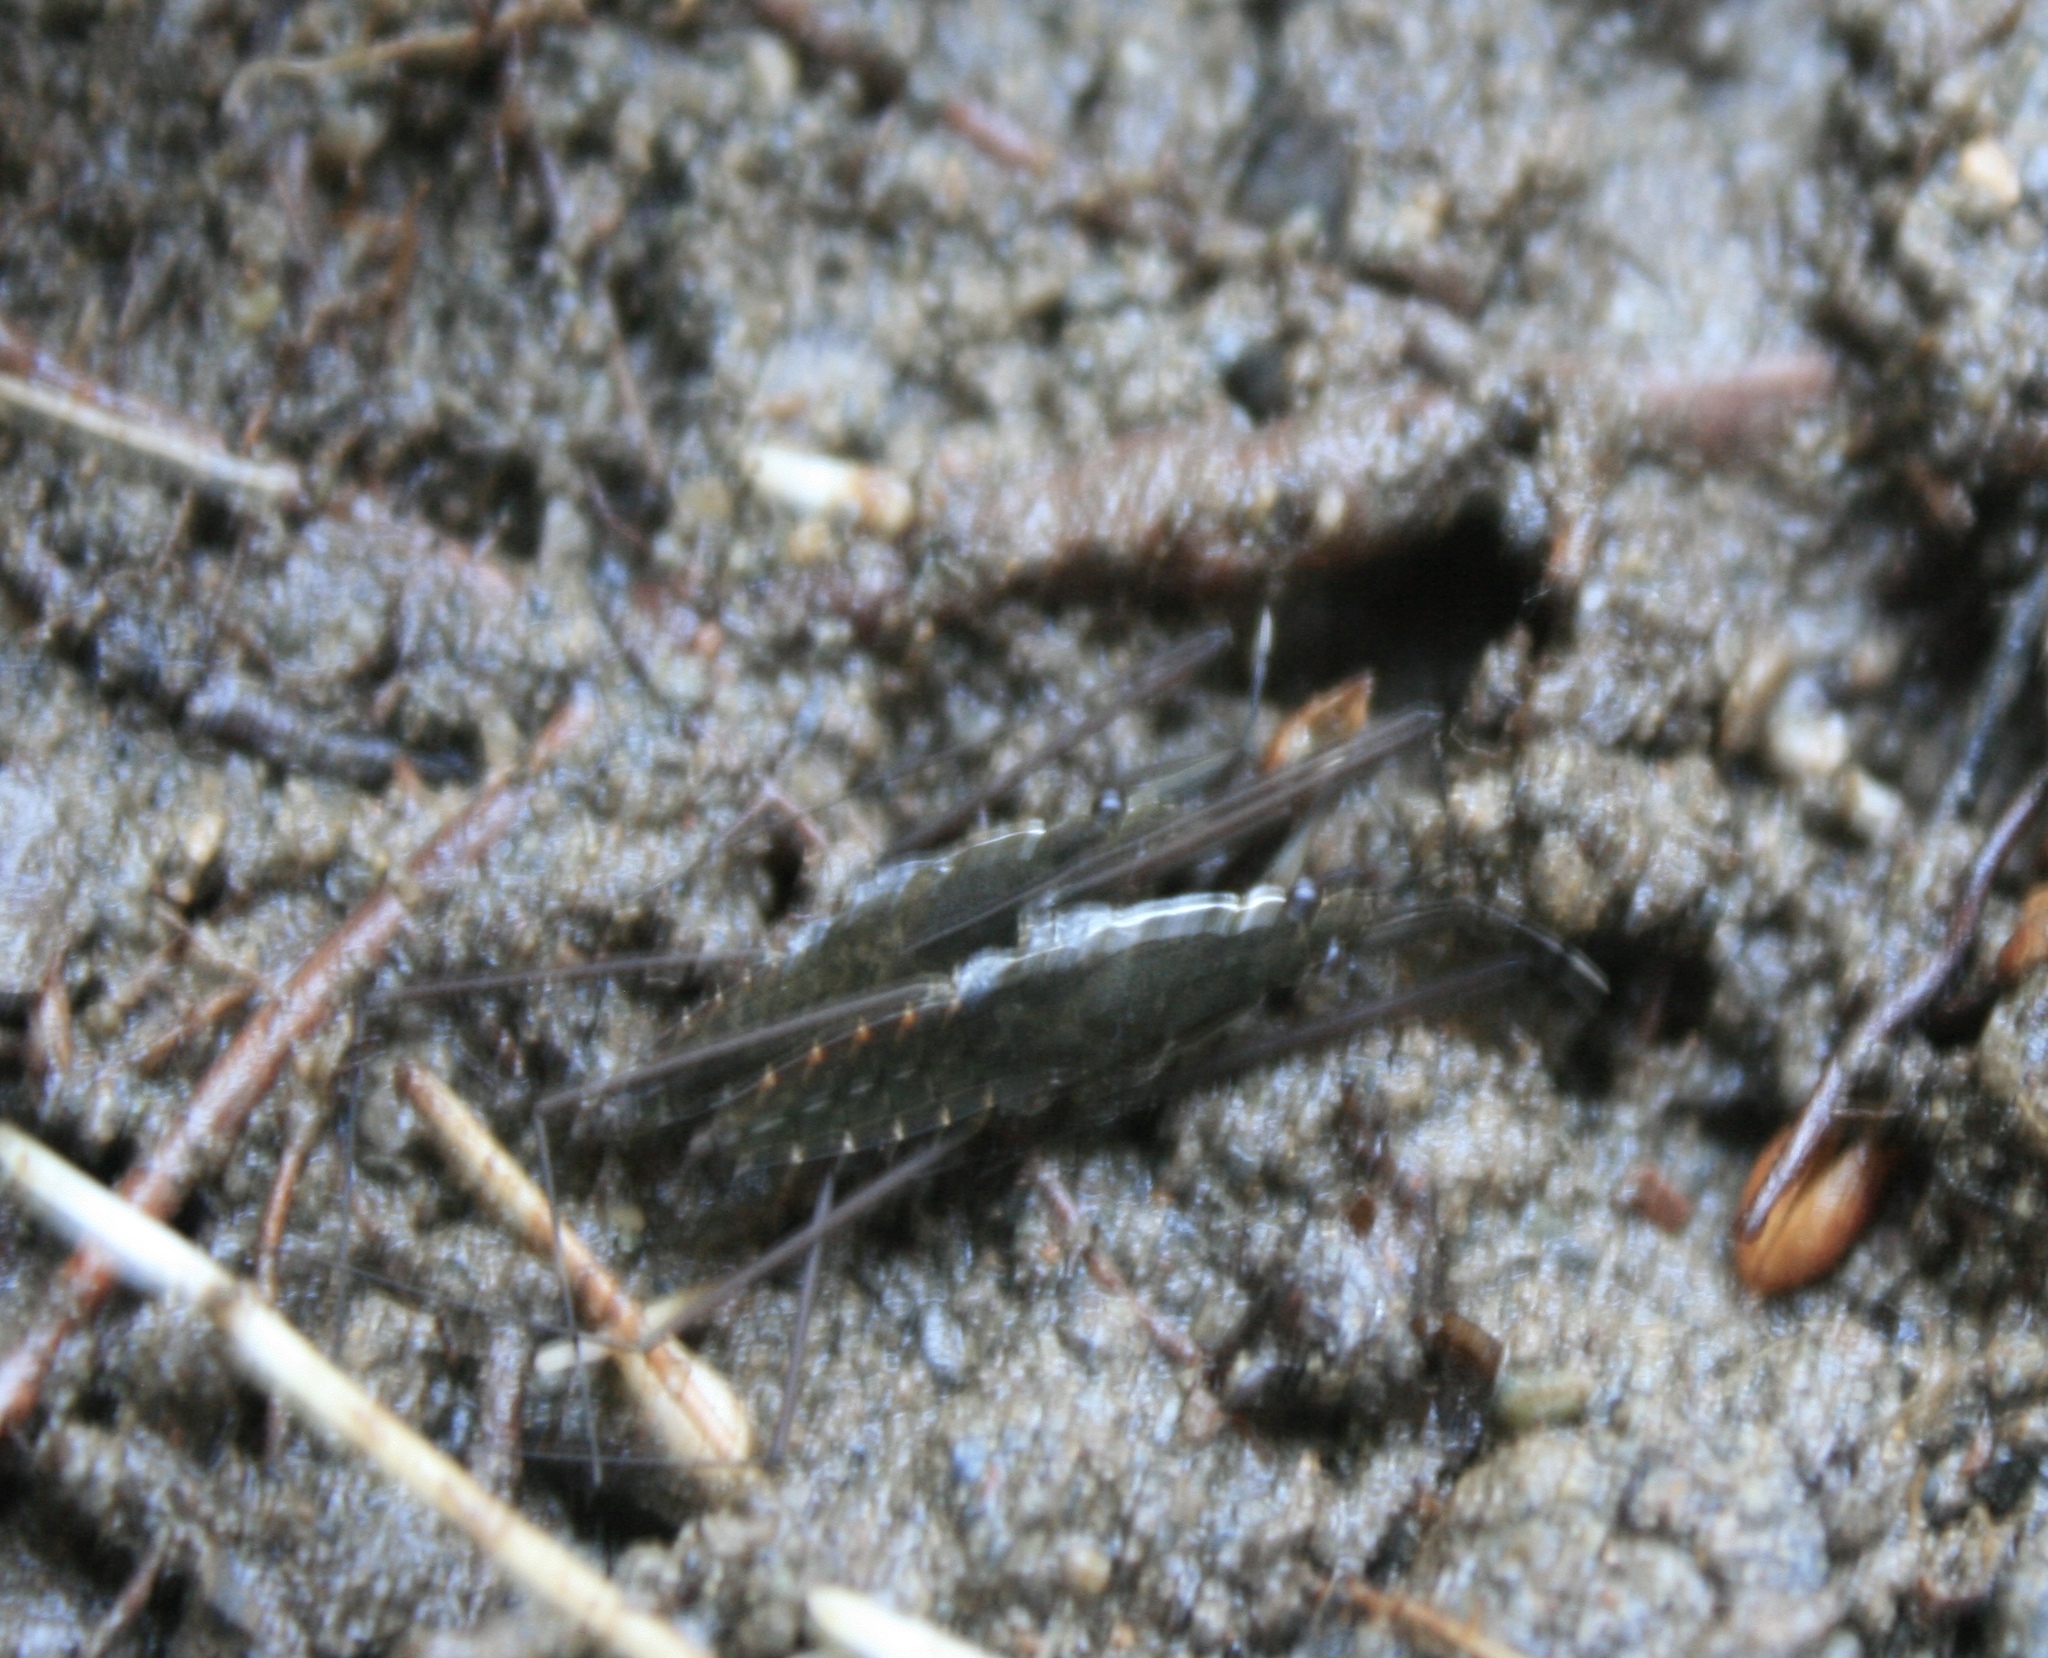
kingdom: Animalia
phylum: Arthropoda
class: Insecta
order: Hemiptera
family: Gerridae
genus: Aquarius
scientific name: Aquarius remigis
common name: Common water strider
